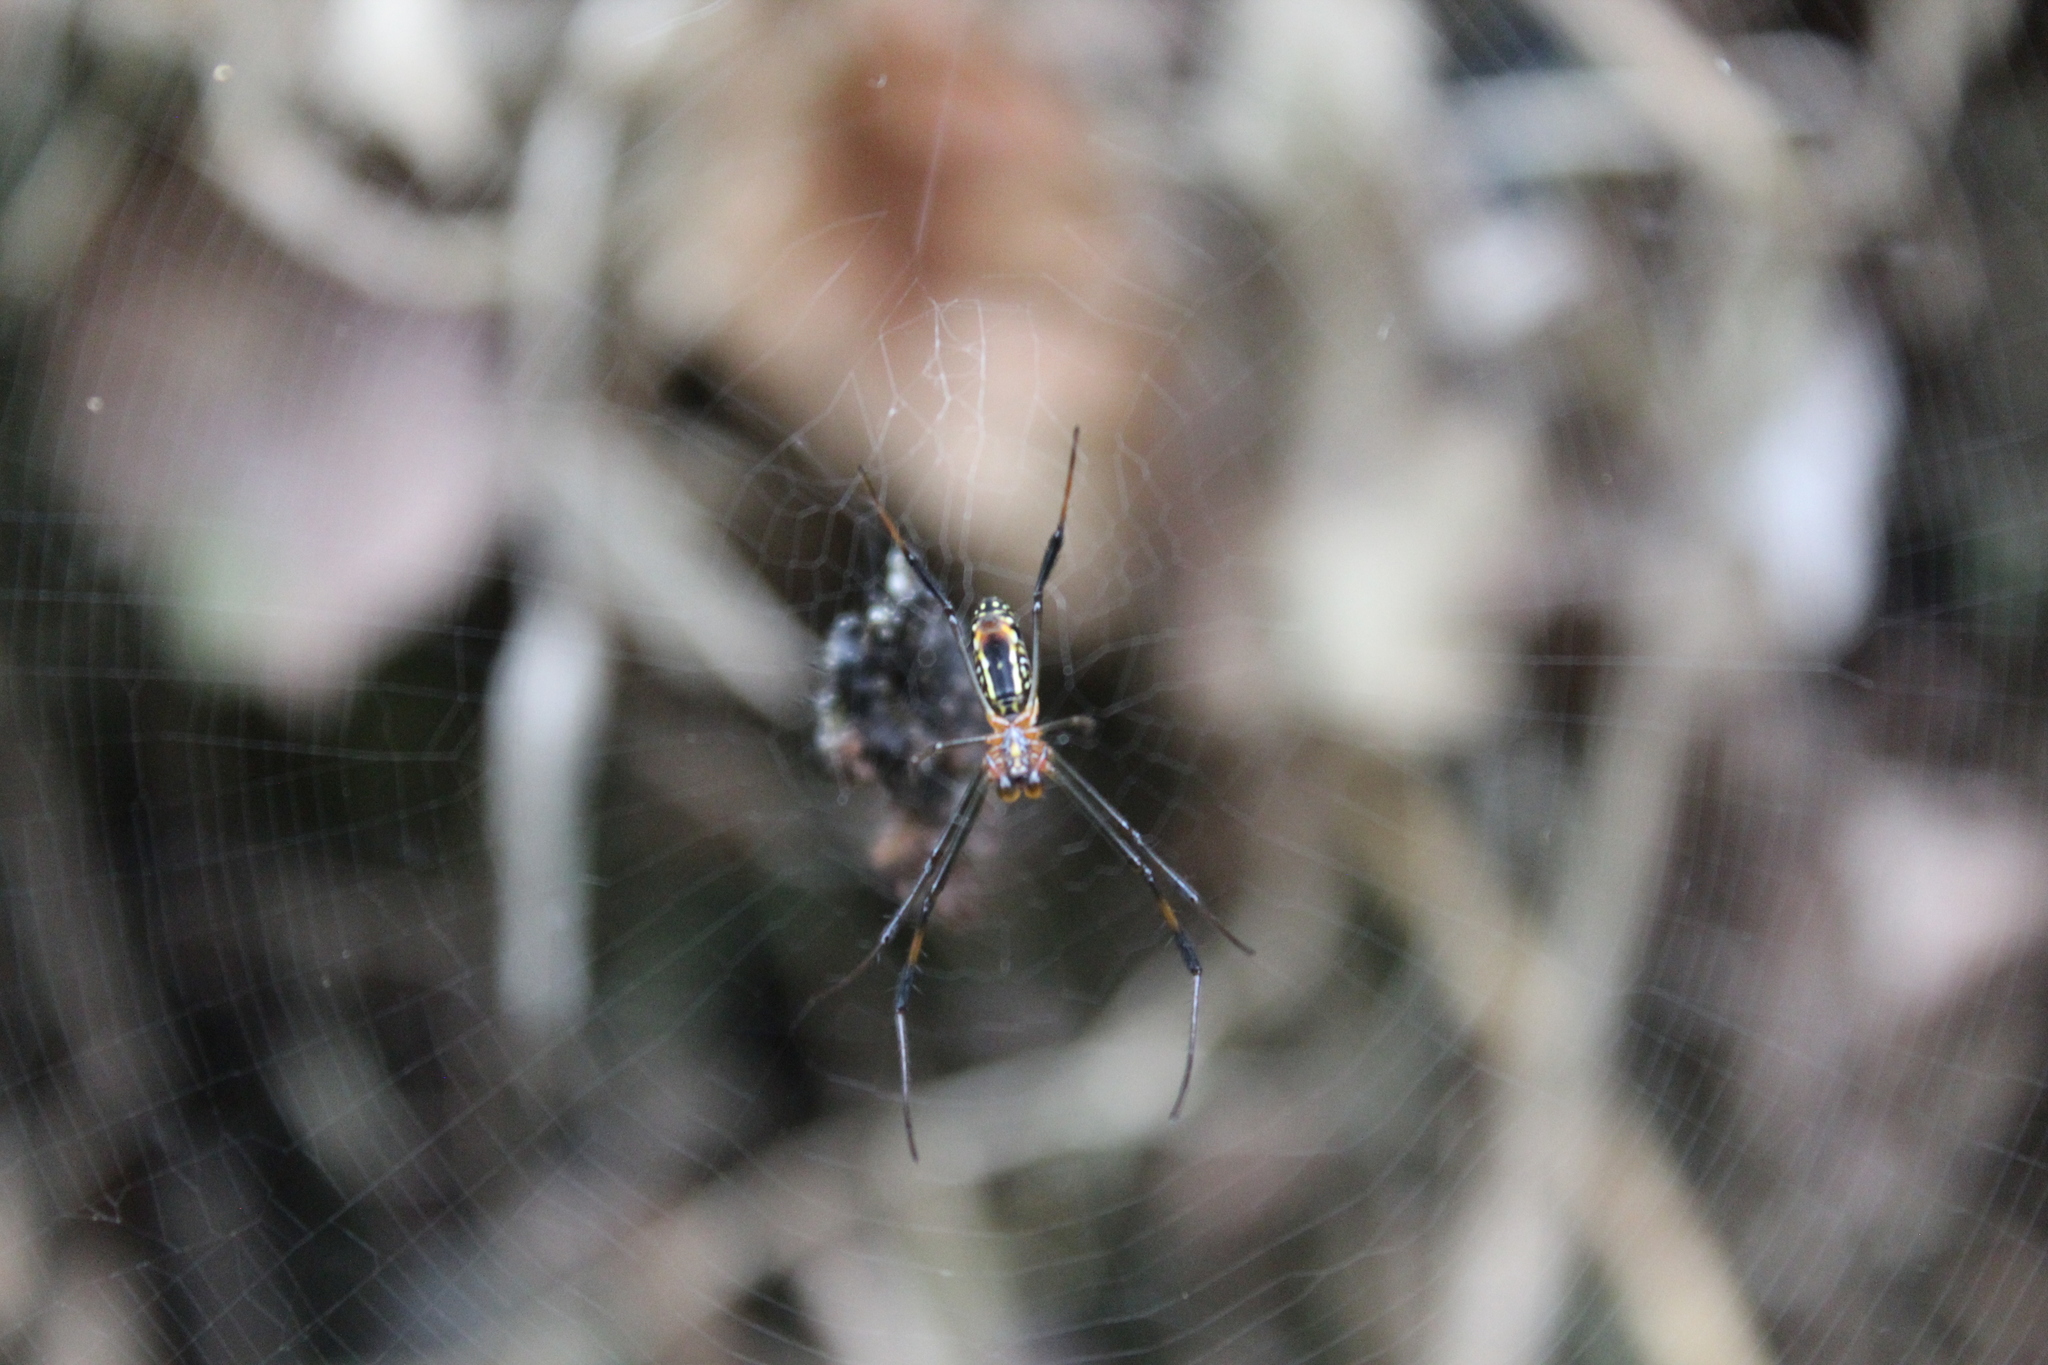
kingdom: Animalia
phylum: Arthropoda
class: Arachnida
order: Araneae
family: Araneidae
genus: Trichonephila
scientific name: Trichonephila inaurata
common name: Red-legged golden orb weaver
